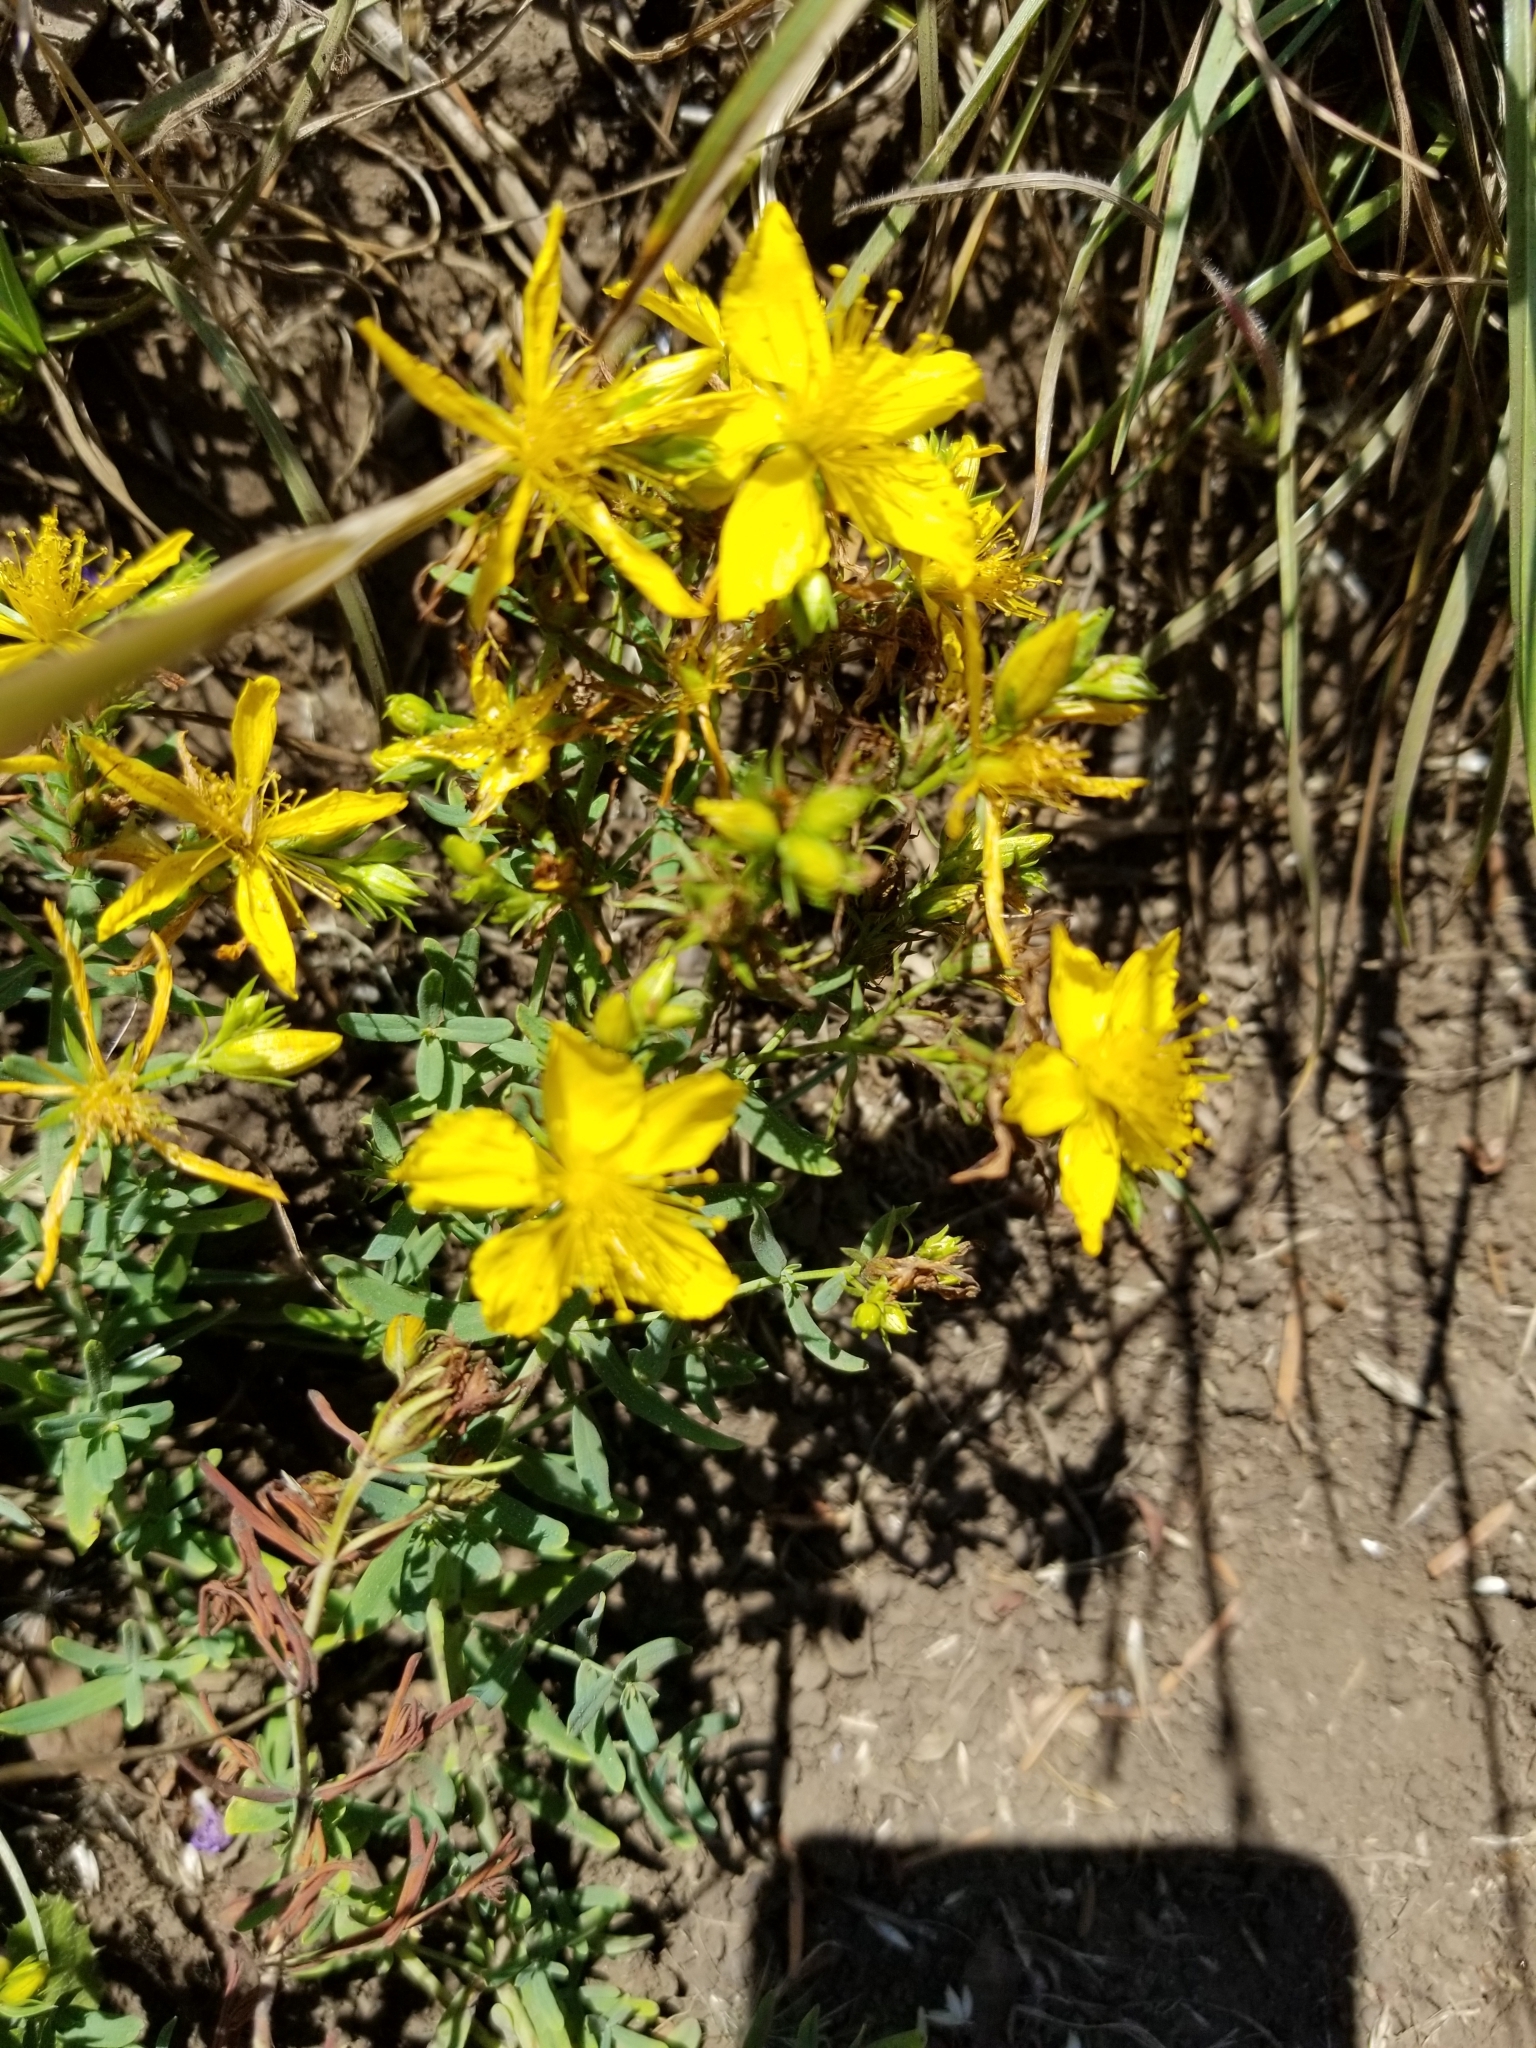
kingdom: Plantae
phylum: Tracheophyta
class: Magnoliopsida
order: Malpighiales
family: Hypericaceae
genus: Hypericum
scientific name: Hypericum perforatum
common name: Common st. johnswort
